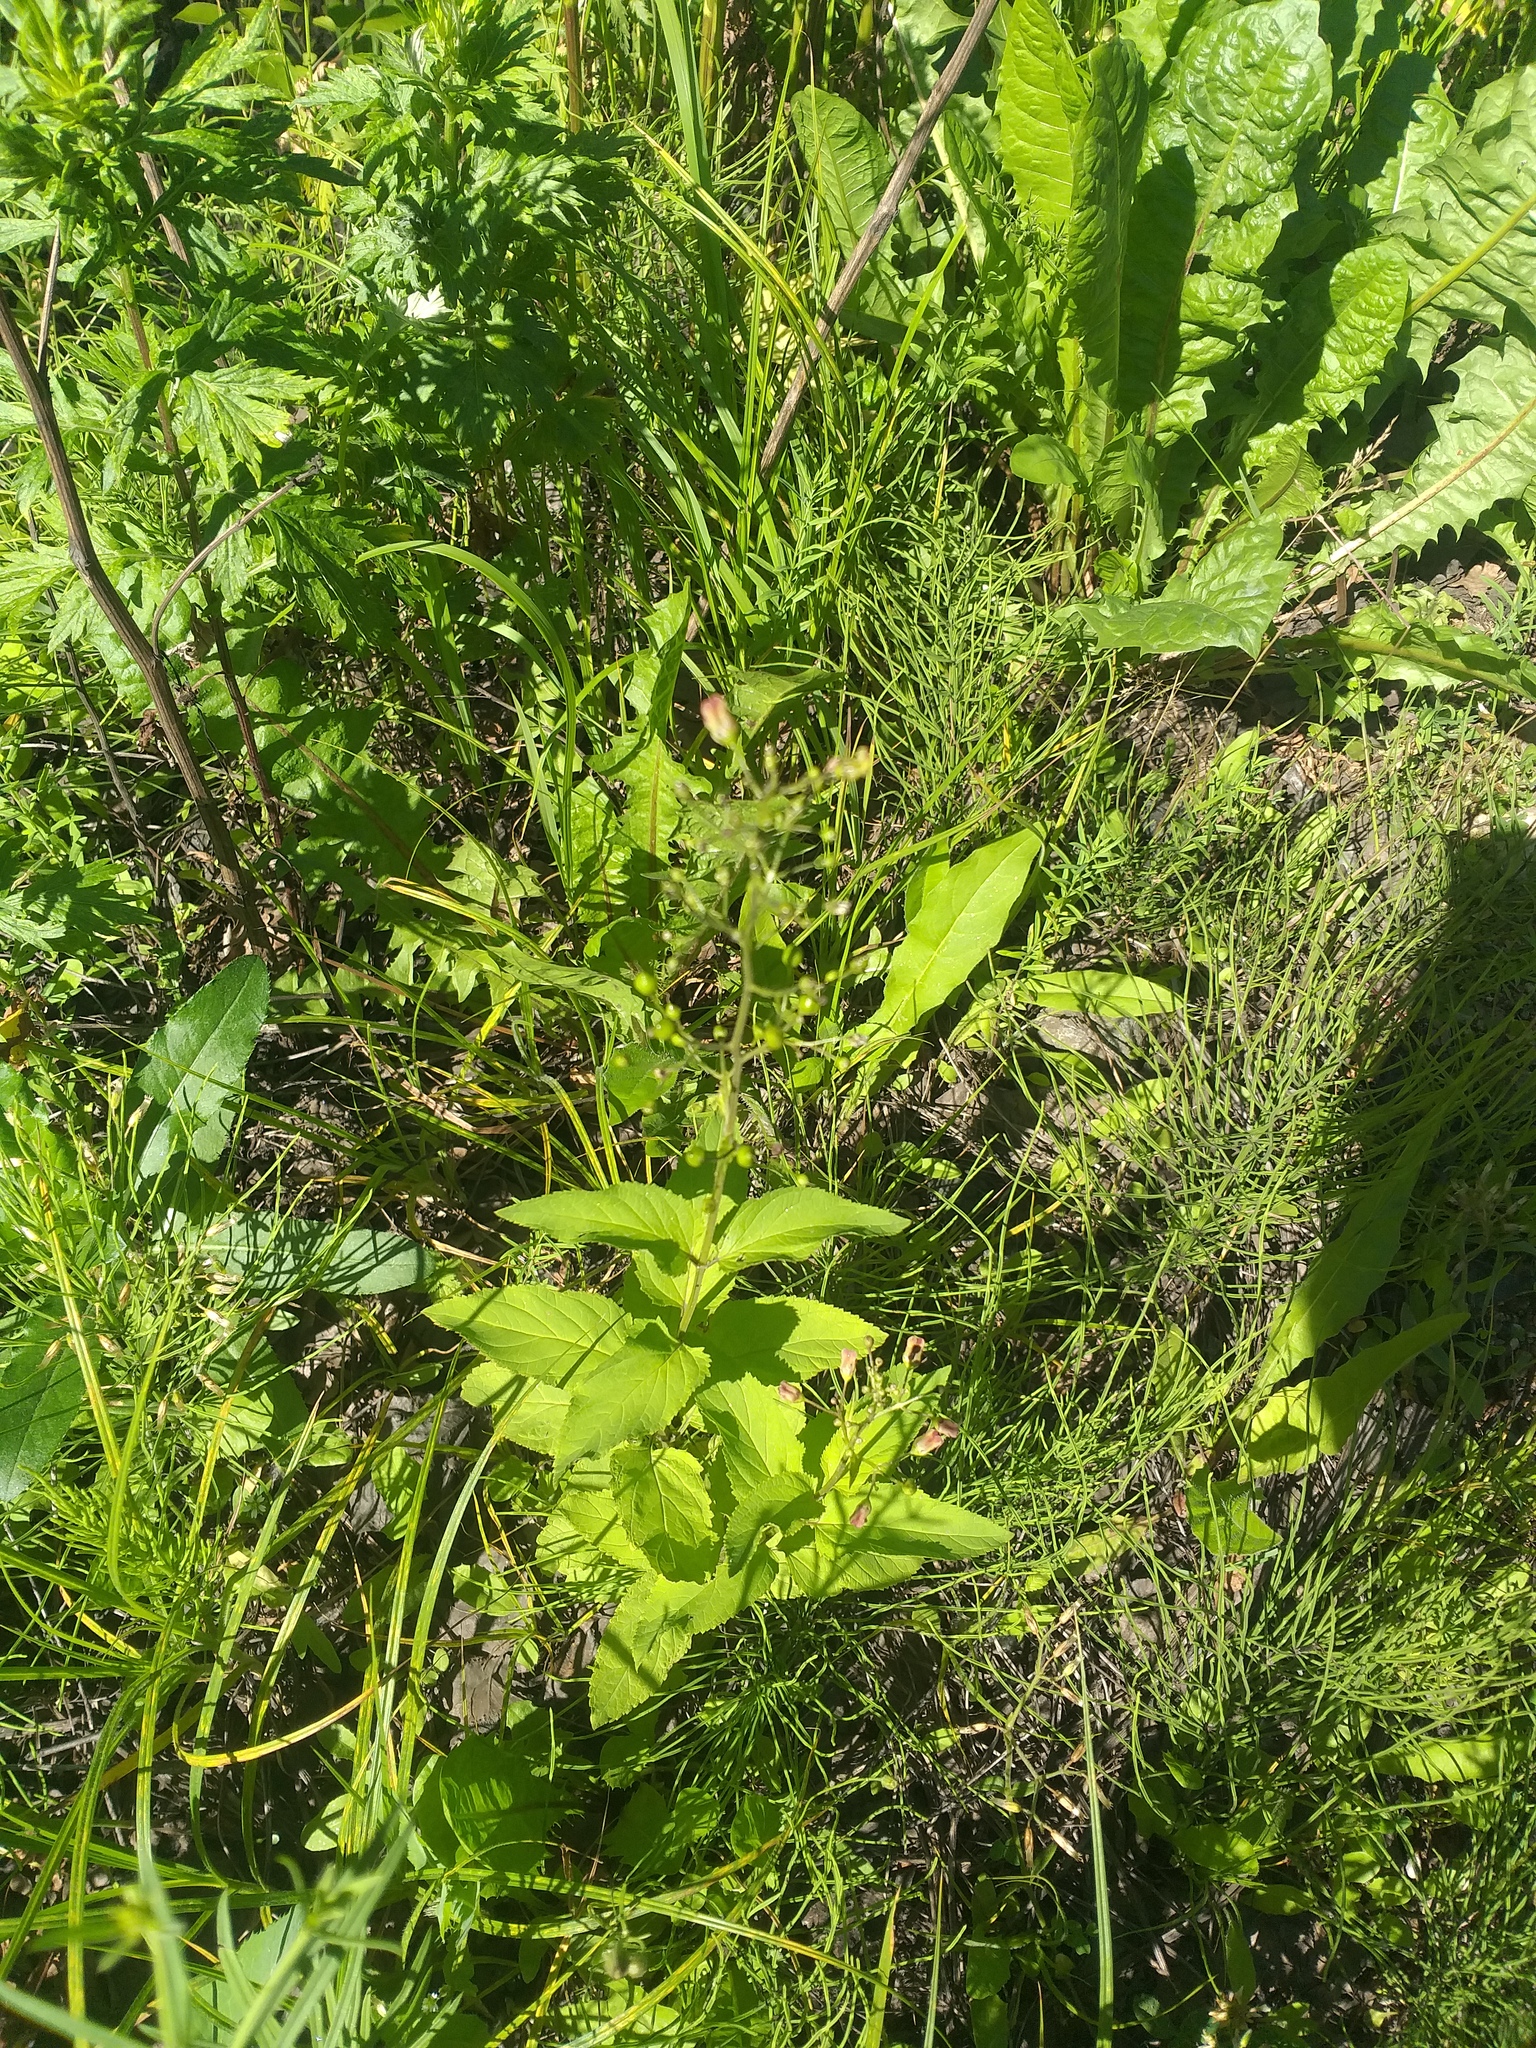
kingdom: Plantae
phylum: Tracheophyta
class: Magnoliopsida
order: Lamiales
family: Scrophulariaceae
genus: Scrophularia
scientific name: Scrophularia nodosa
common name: Common figwort
